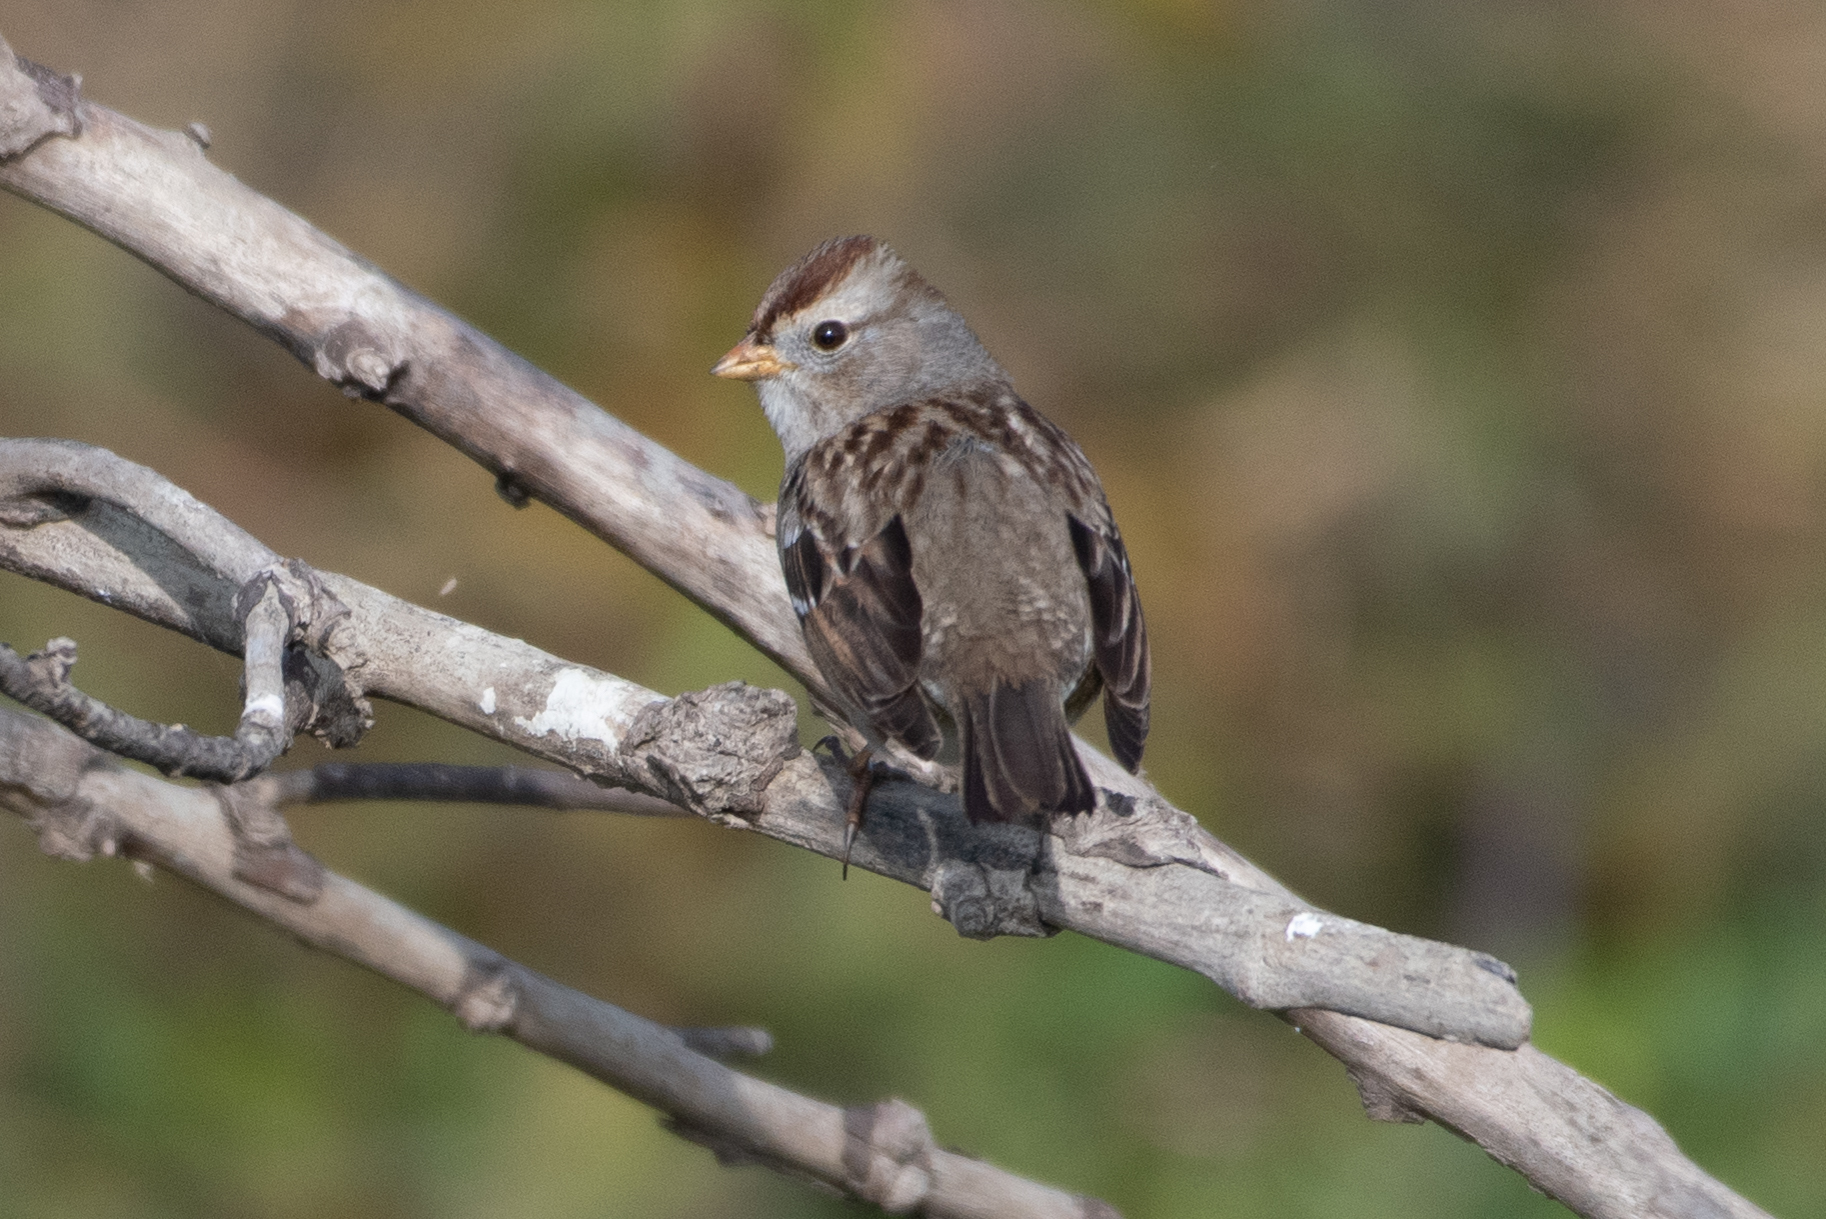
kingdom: Animalia
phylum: Chordata
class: Aves
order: Passeriformes
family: Passerellidae
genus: Zonotrichia
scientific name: Zonotrichia leucophrys
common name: White-crowned sparrow
